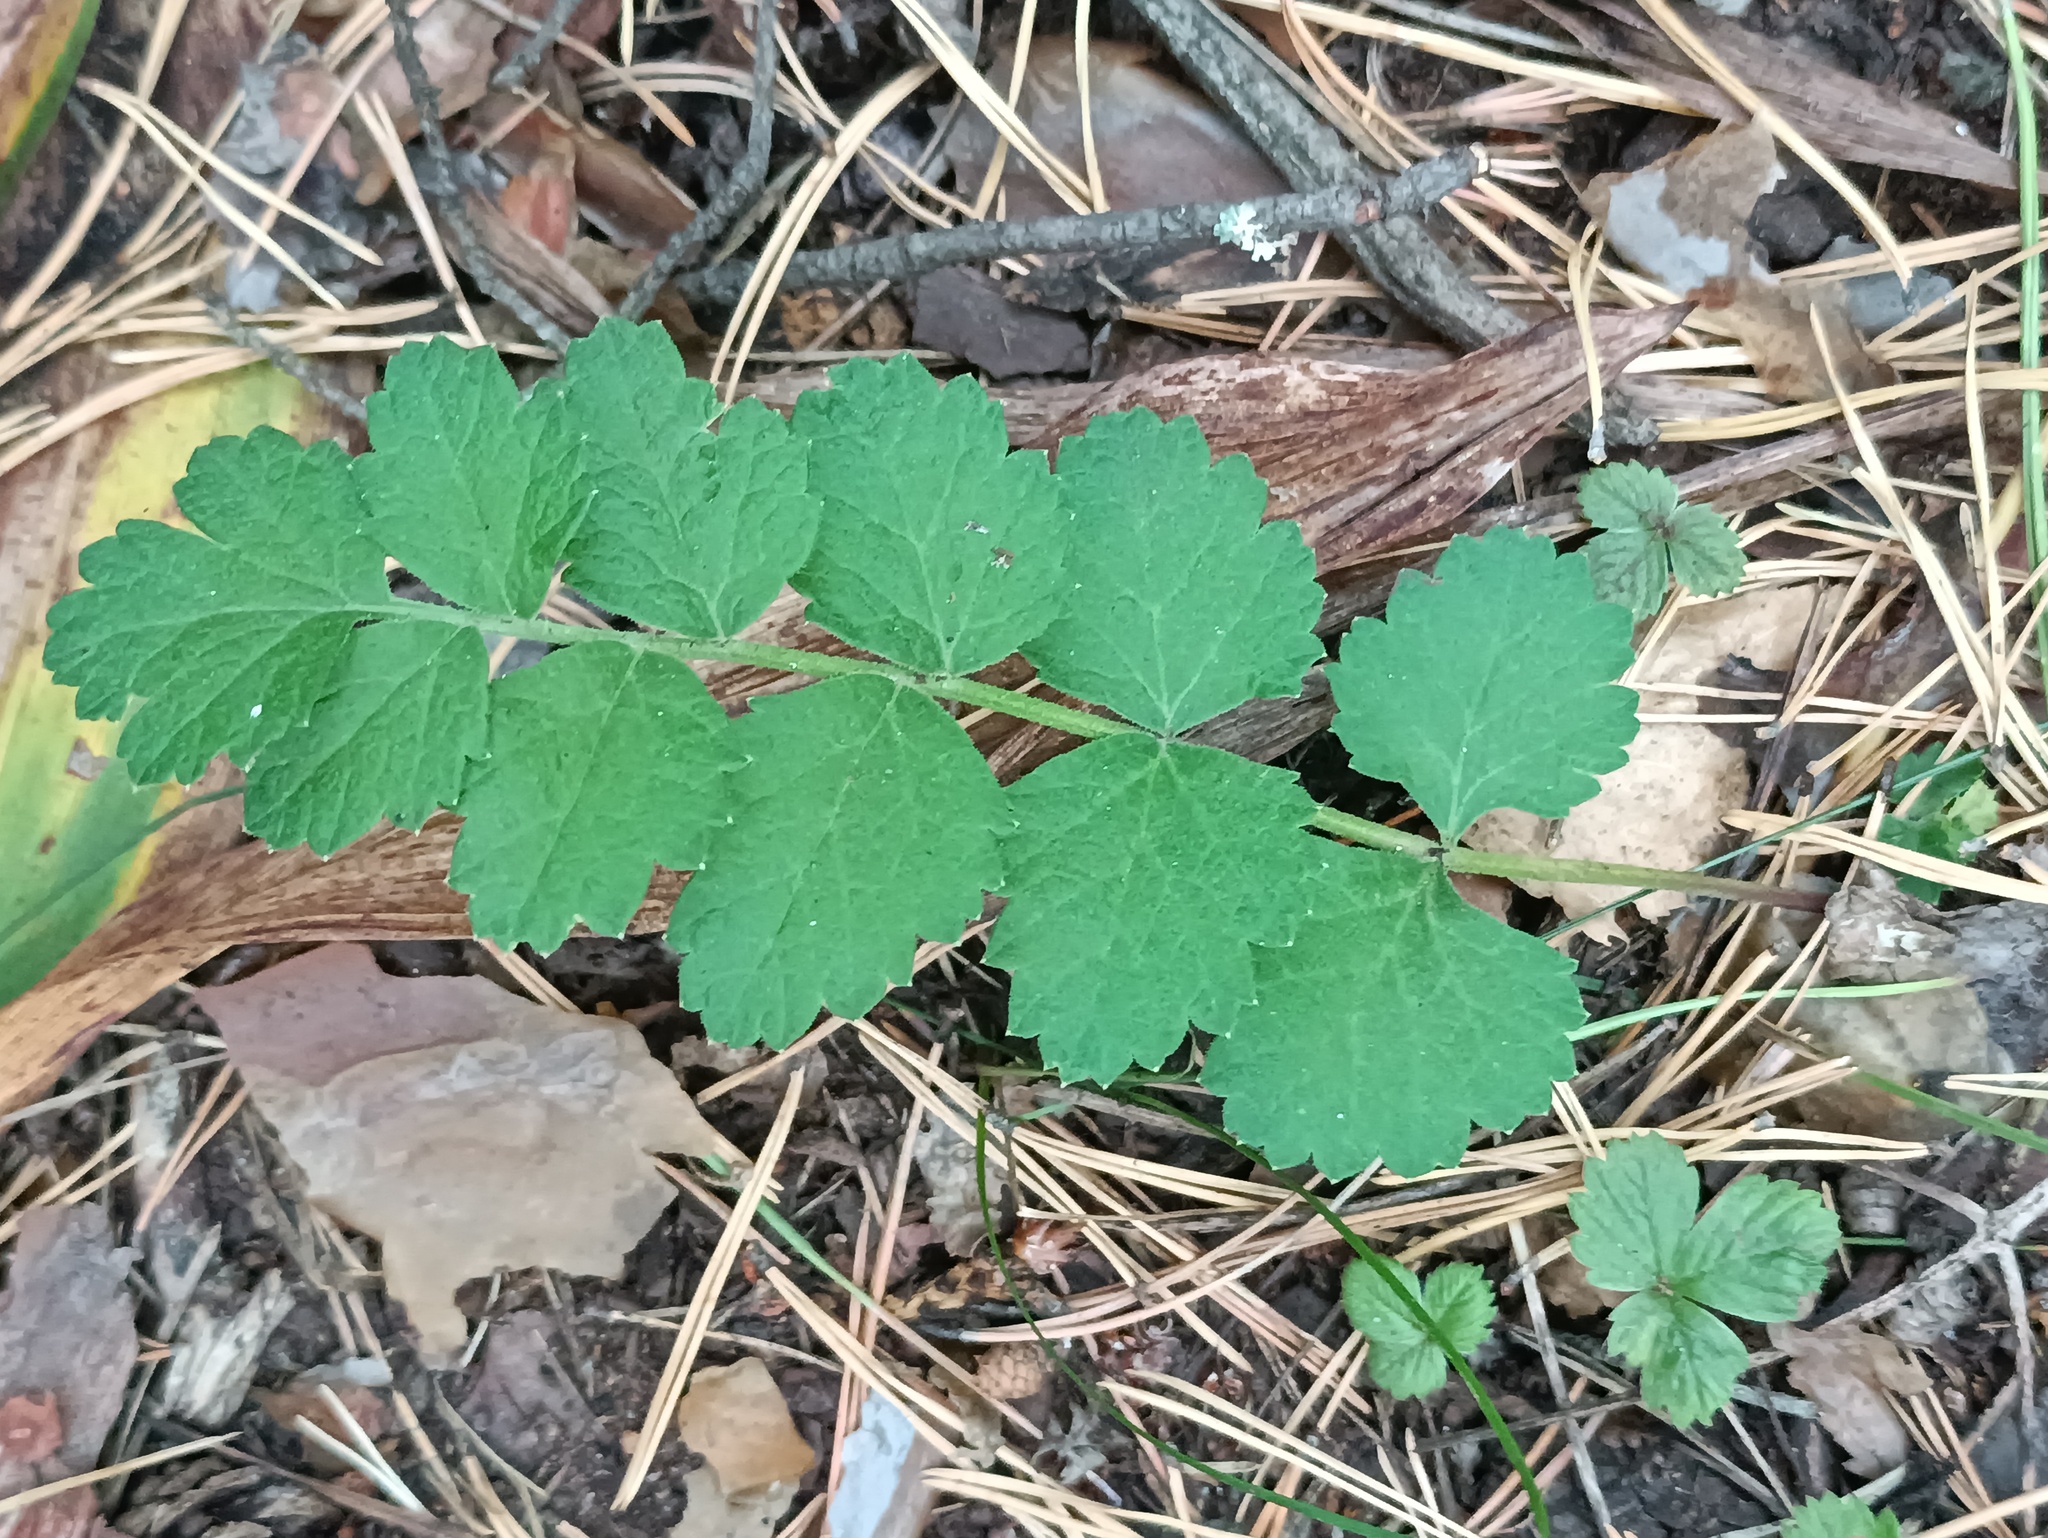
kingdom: Plantae
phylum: Tracheophyta
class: Magnoliopsida
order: Apiales
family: Apiaceae
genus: Pimpinella
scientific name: Pimpinella saxifraga
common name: Burnet-saxifrage
